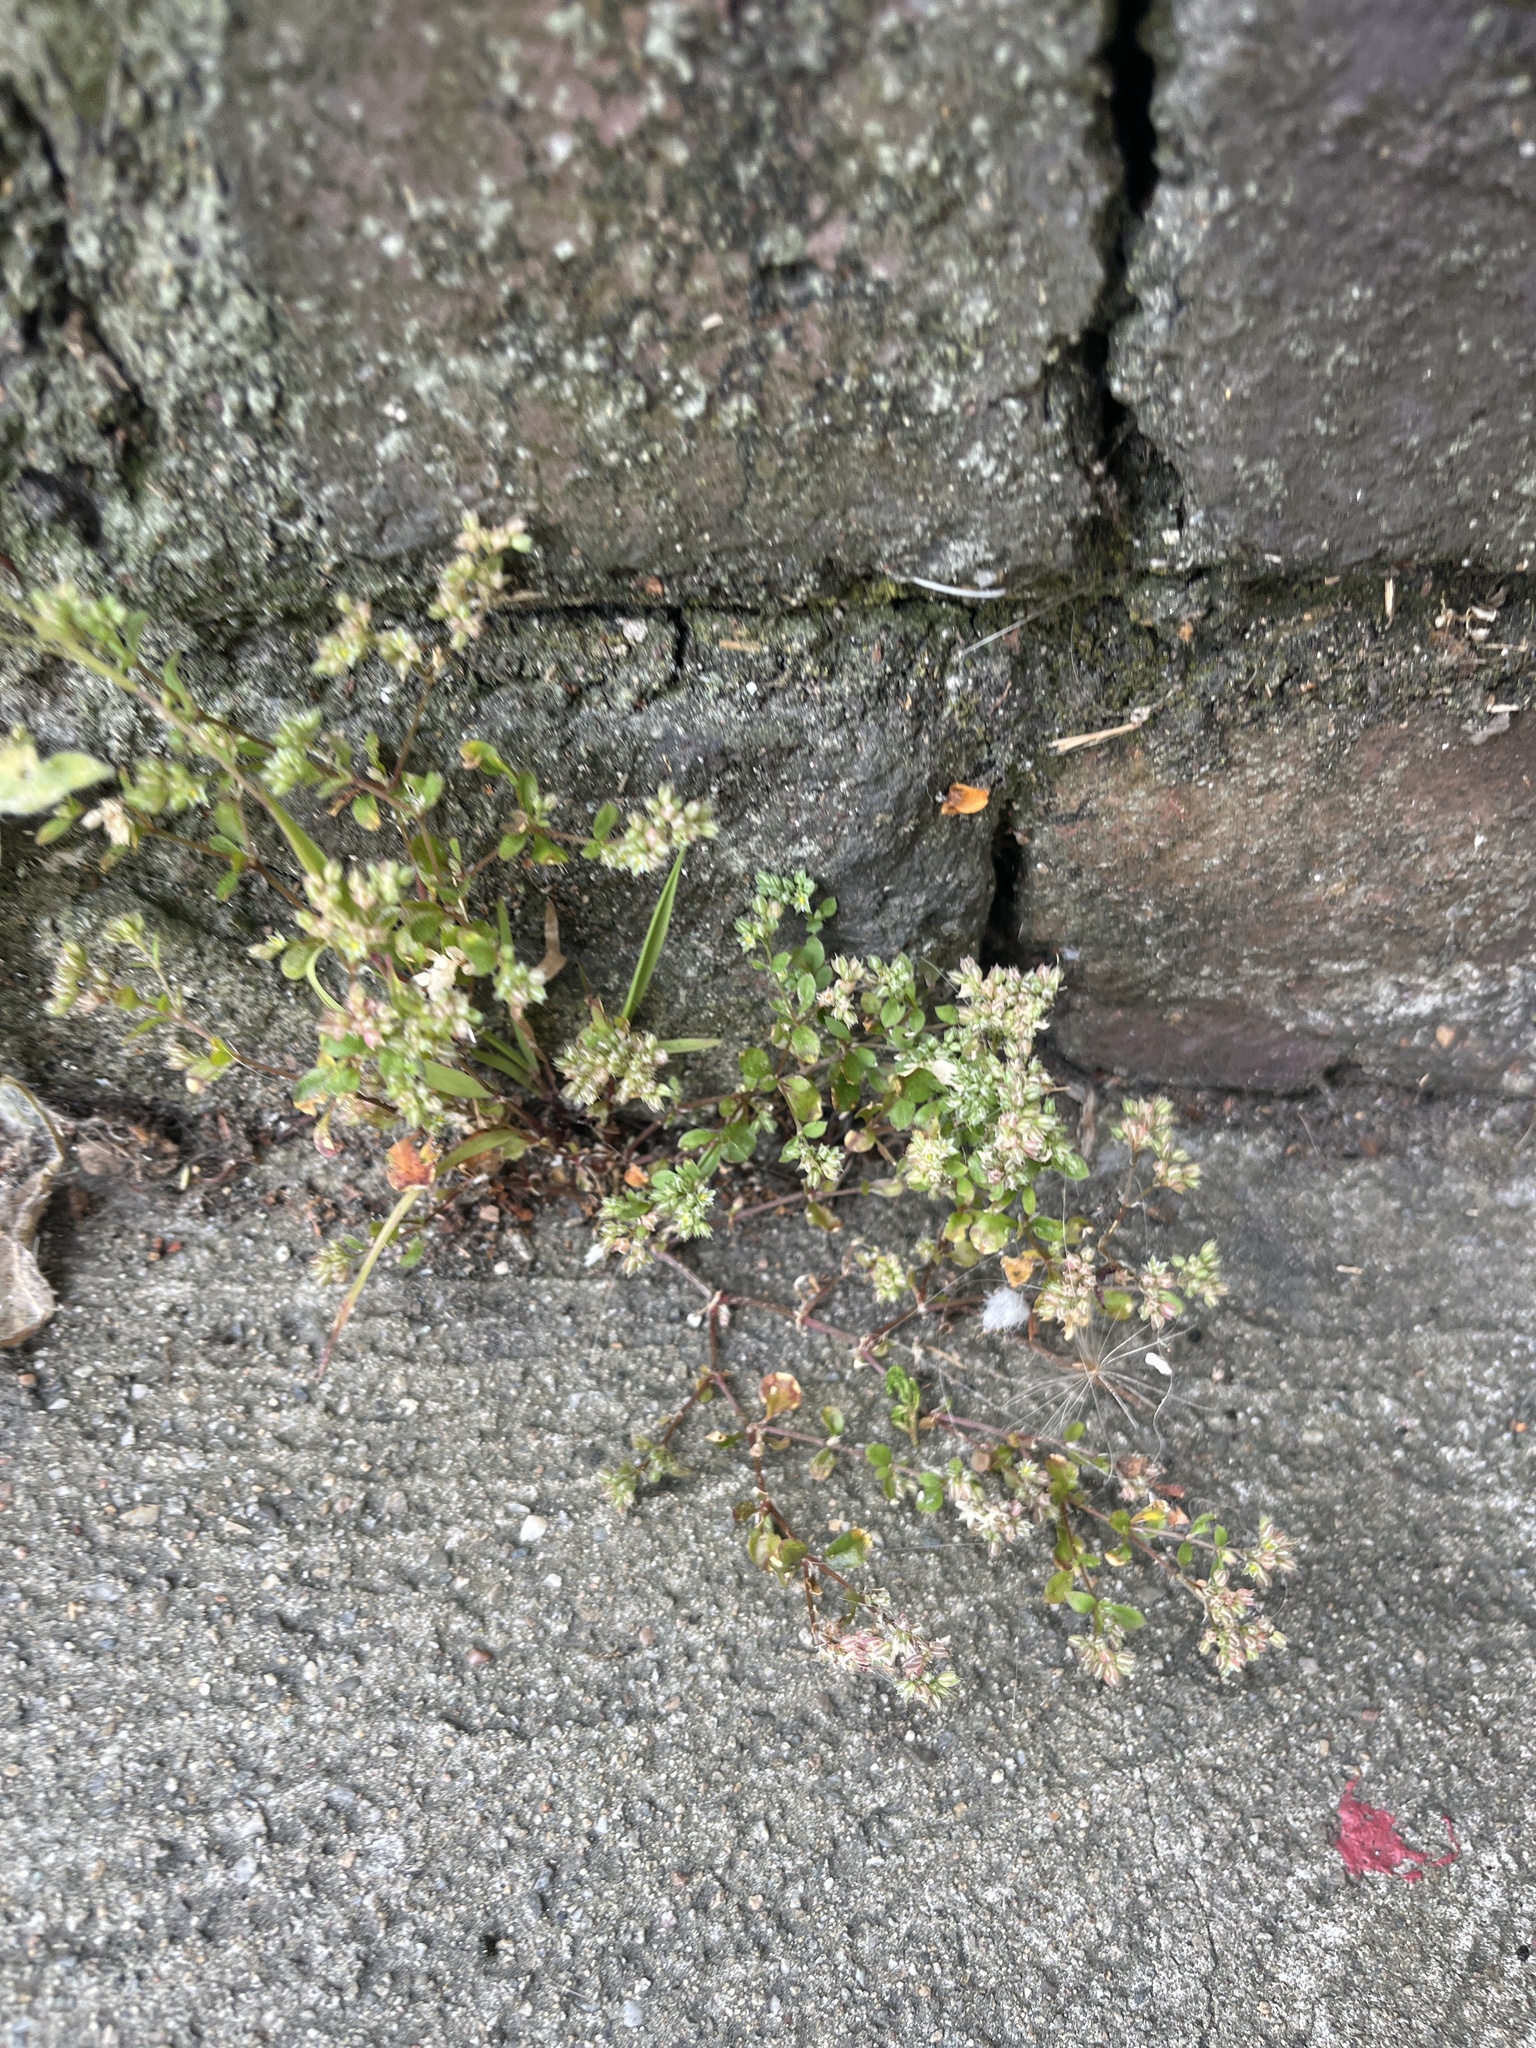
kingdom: Plantae
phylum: Tracheophyta
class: Magnoliopsida
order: Caryophyllales
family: Caryophyllaceae
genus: Polycarpon
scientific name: Polycarpon tetraphyllum
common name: Four-leaved all-seed
